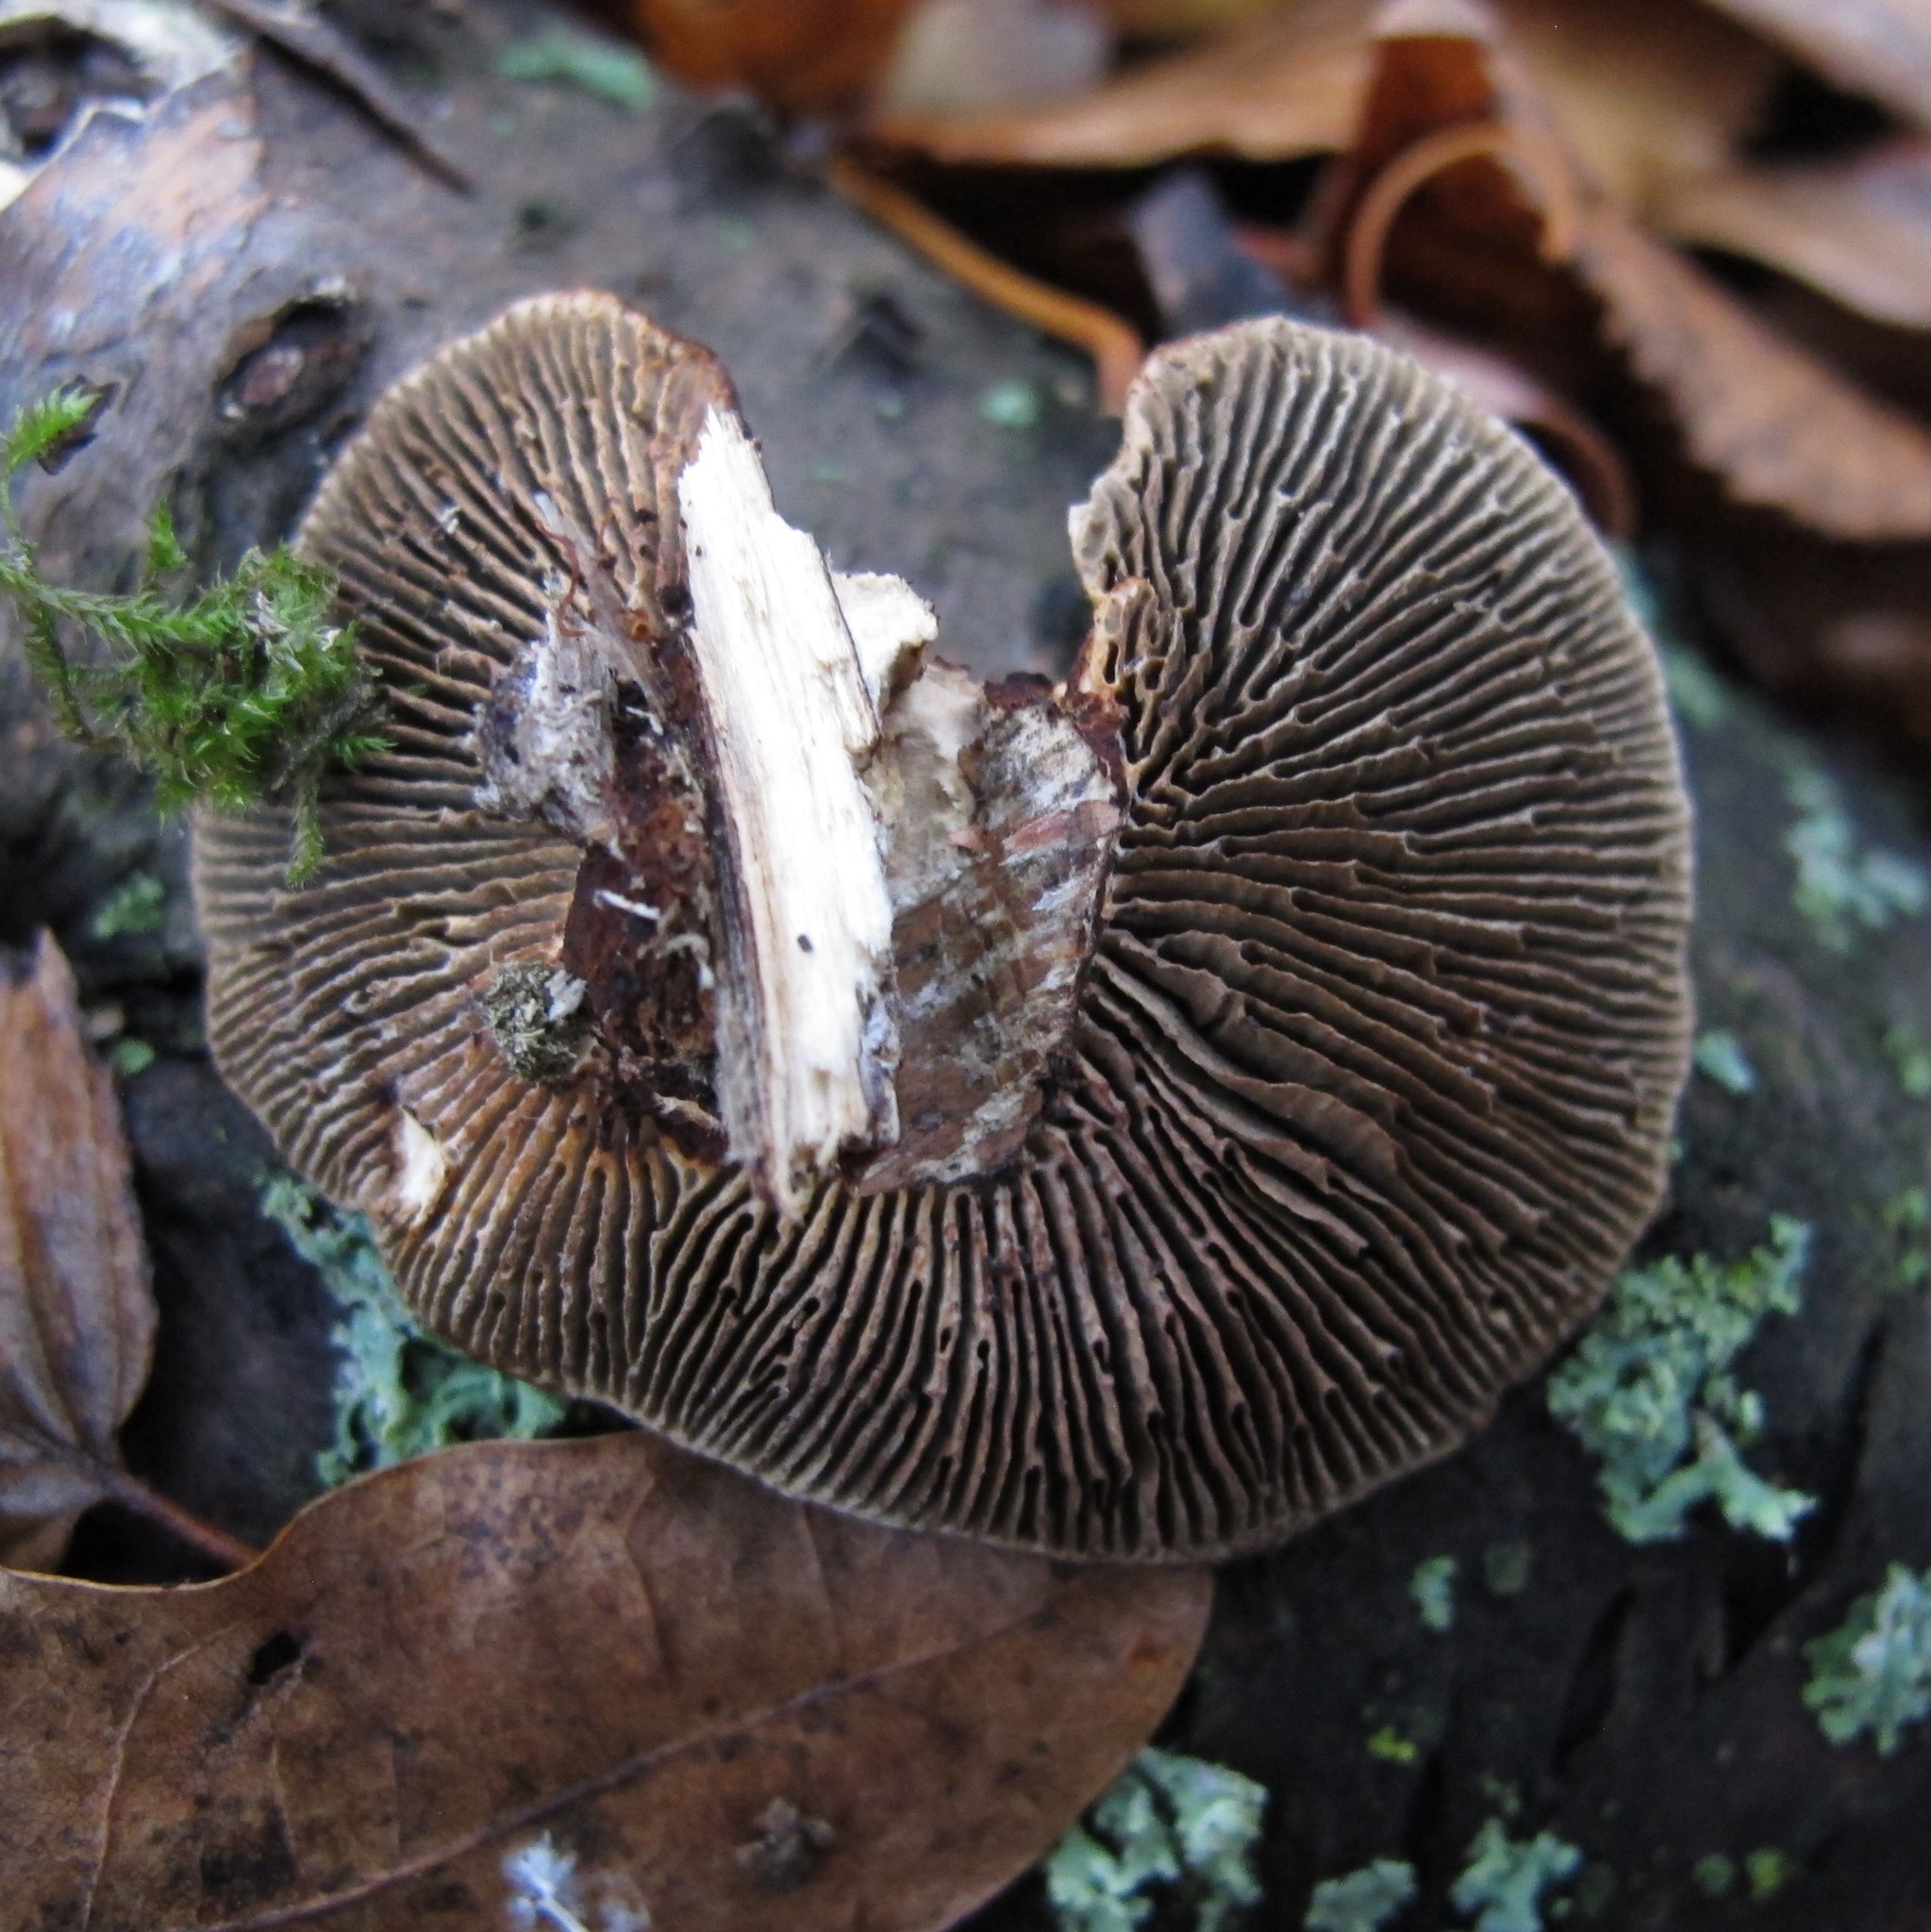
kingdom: Fungi
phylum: Basidiomycota
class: Agaricomycetes
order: Polyporales
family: Polyporaceae
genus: Daedaleopsis
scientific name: Daedaleopsis confragosa
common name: Blushing bracket
